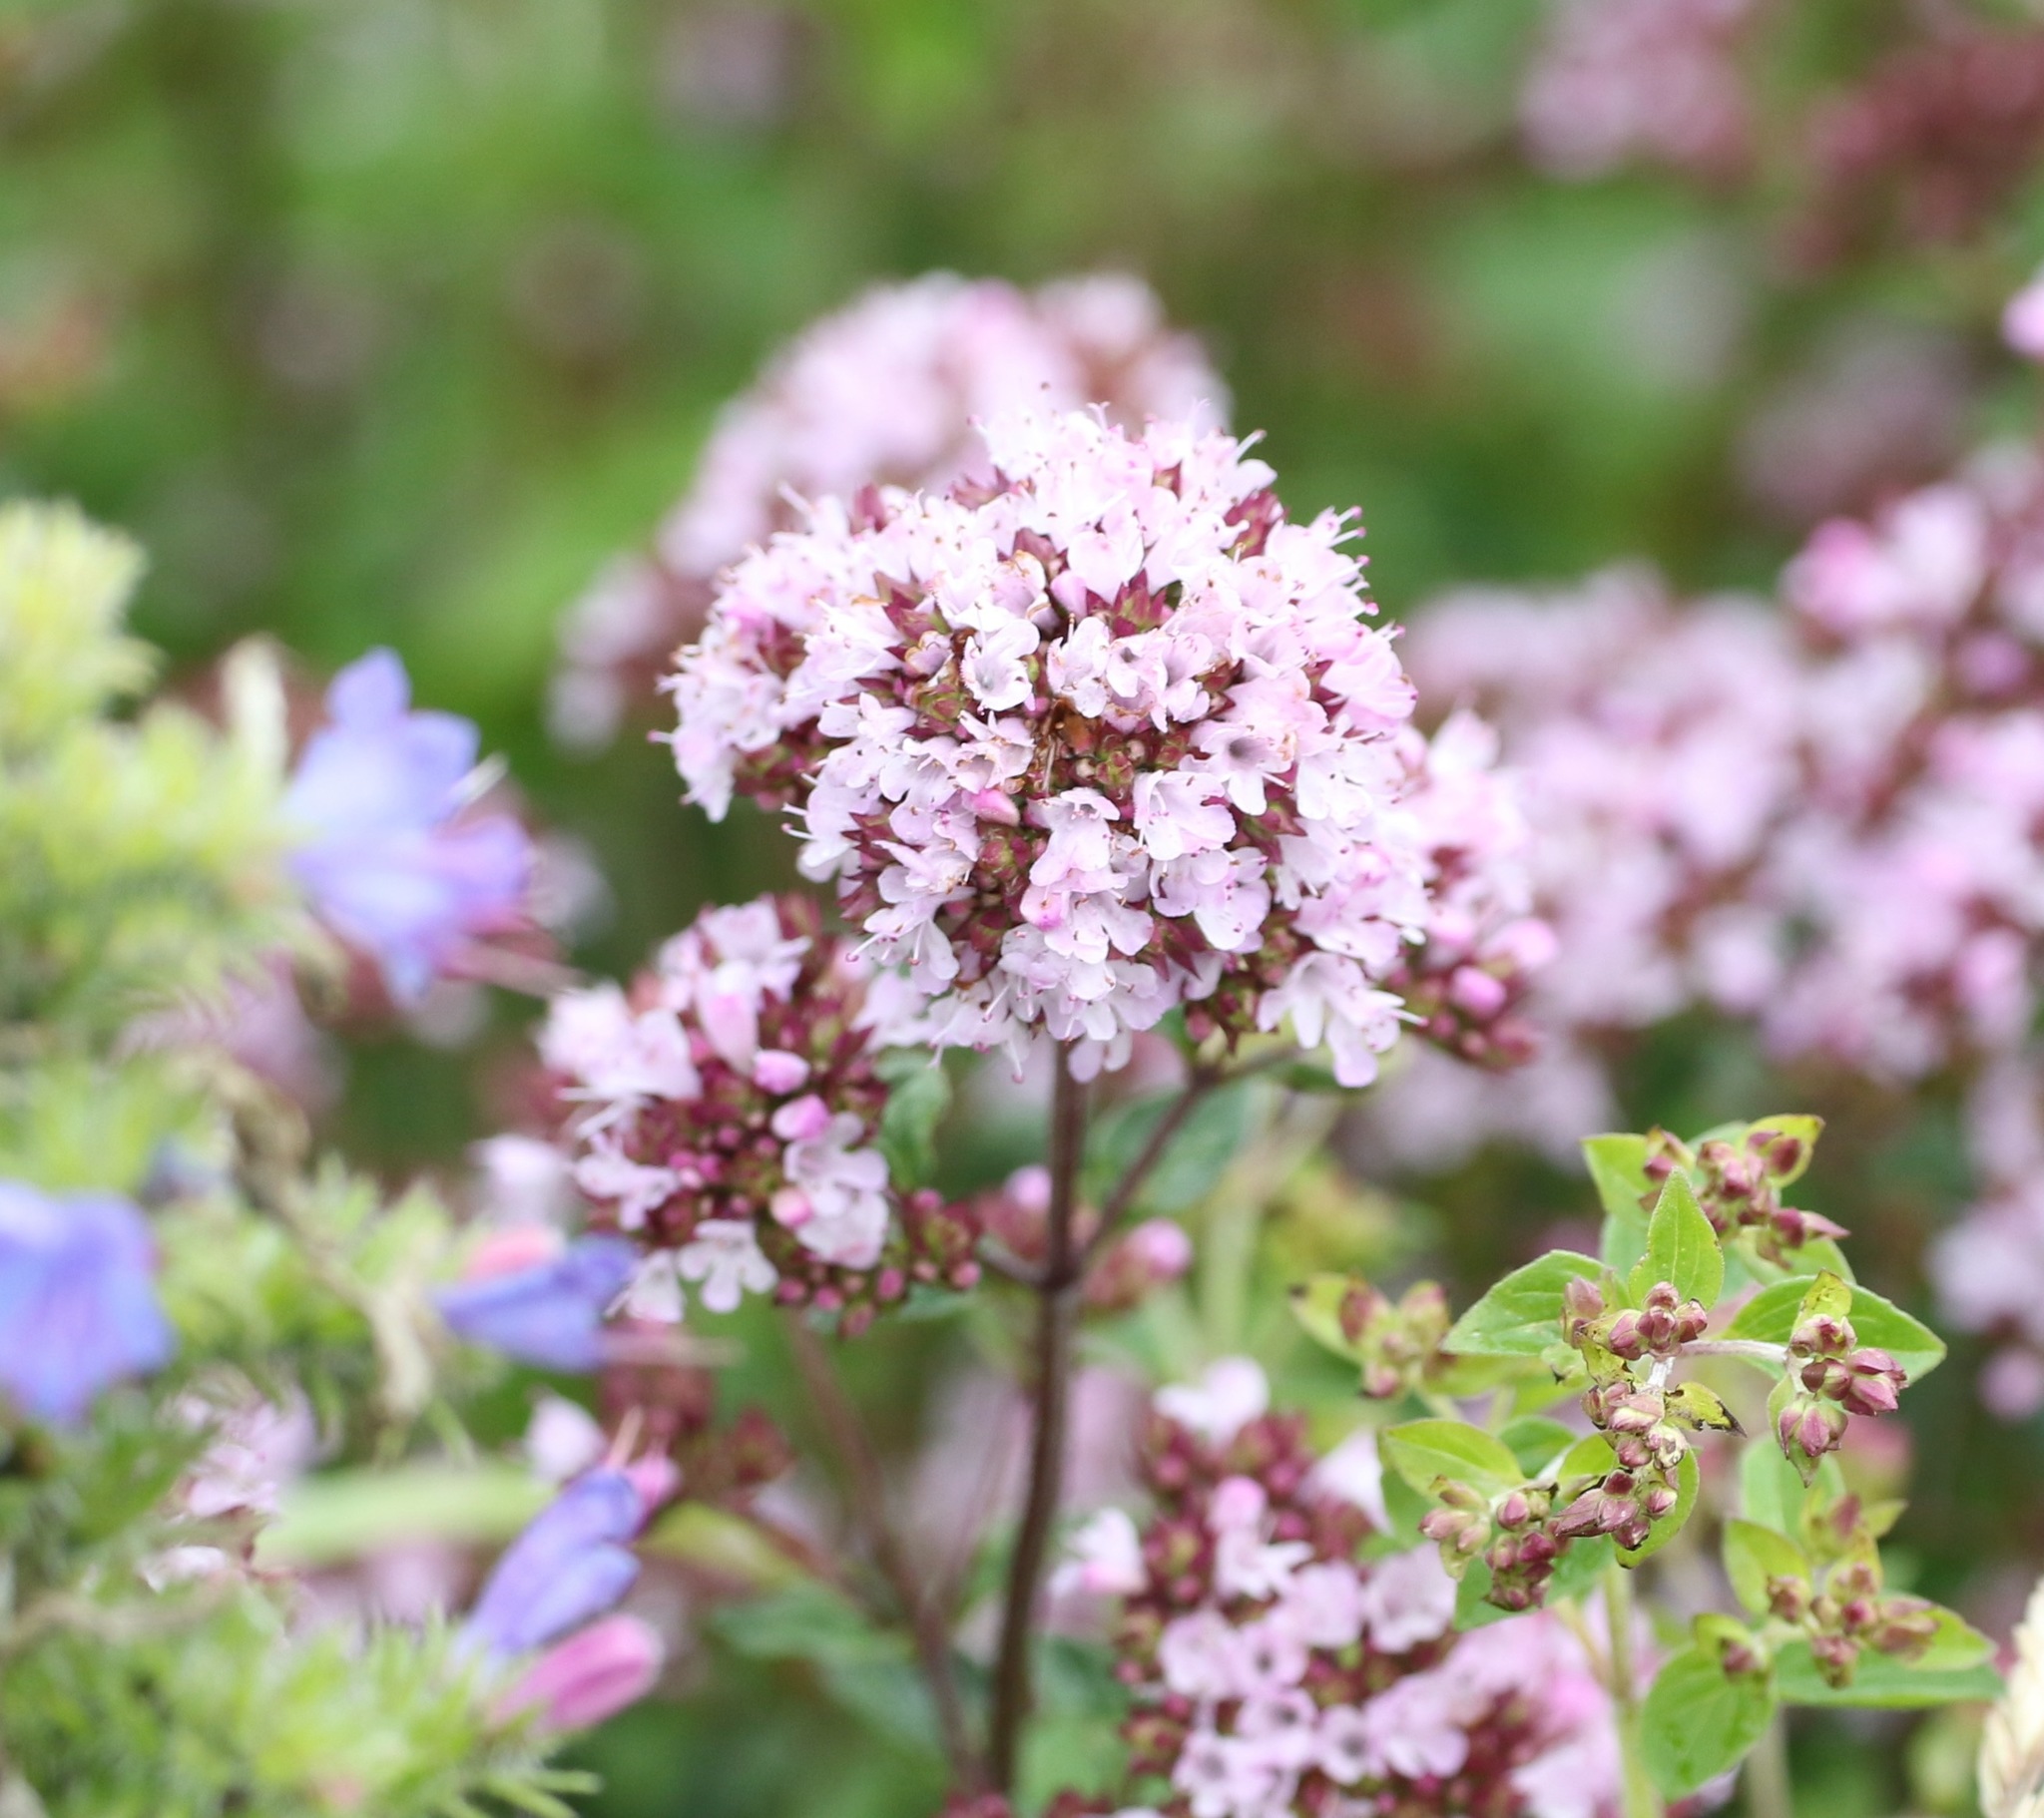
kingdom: Plantae
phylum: Tracheophyta
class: Magnoliopsida
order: Lamiales
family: Lamiaceae
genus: Origanum
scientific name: Origanum vulgare
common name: Wild marjoram
